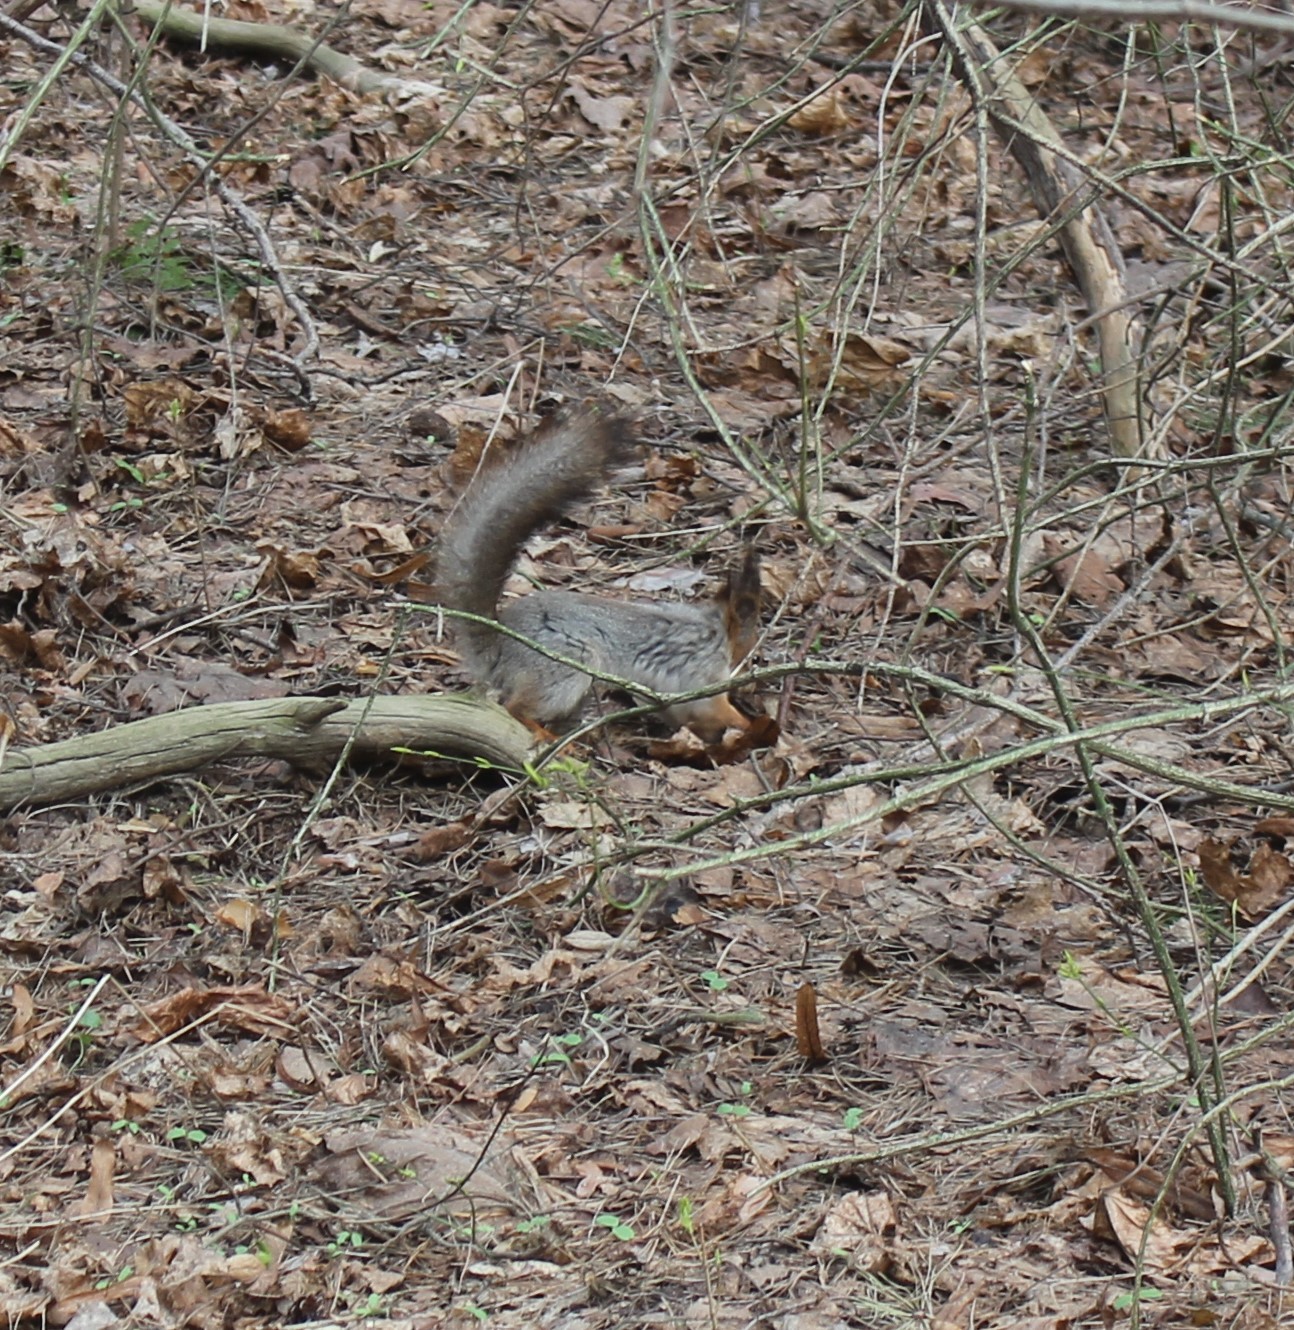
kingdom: Animalia
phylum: Chordata
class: Mammalia
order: Rodentia
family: Sciuridae
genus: Sciurus
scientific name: Sciurus vulgaris
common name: Eurasian red squirrel
